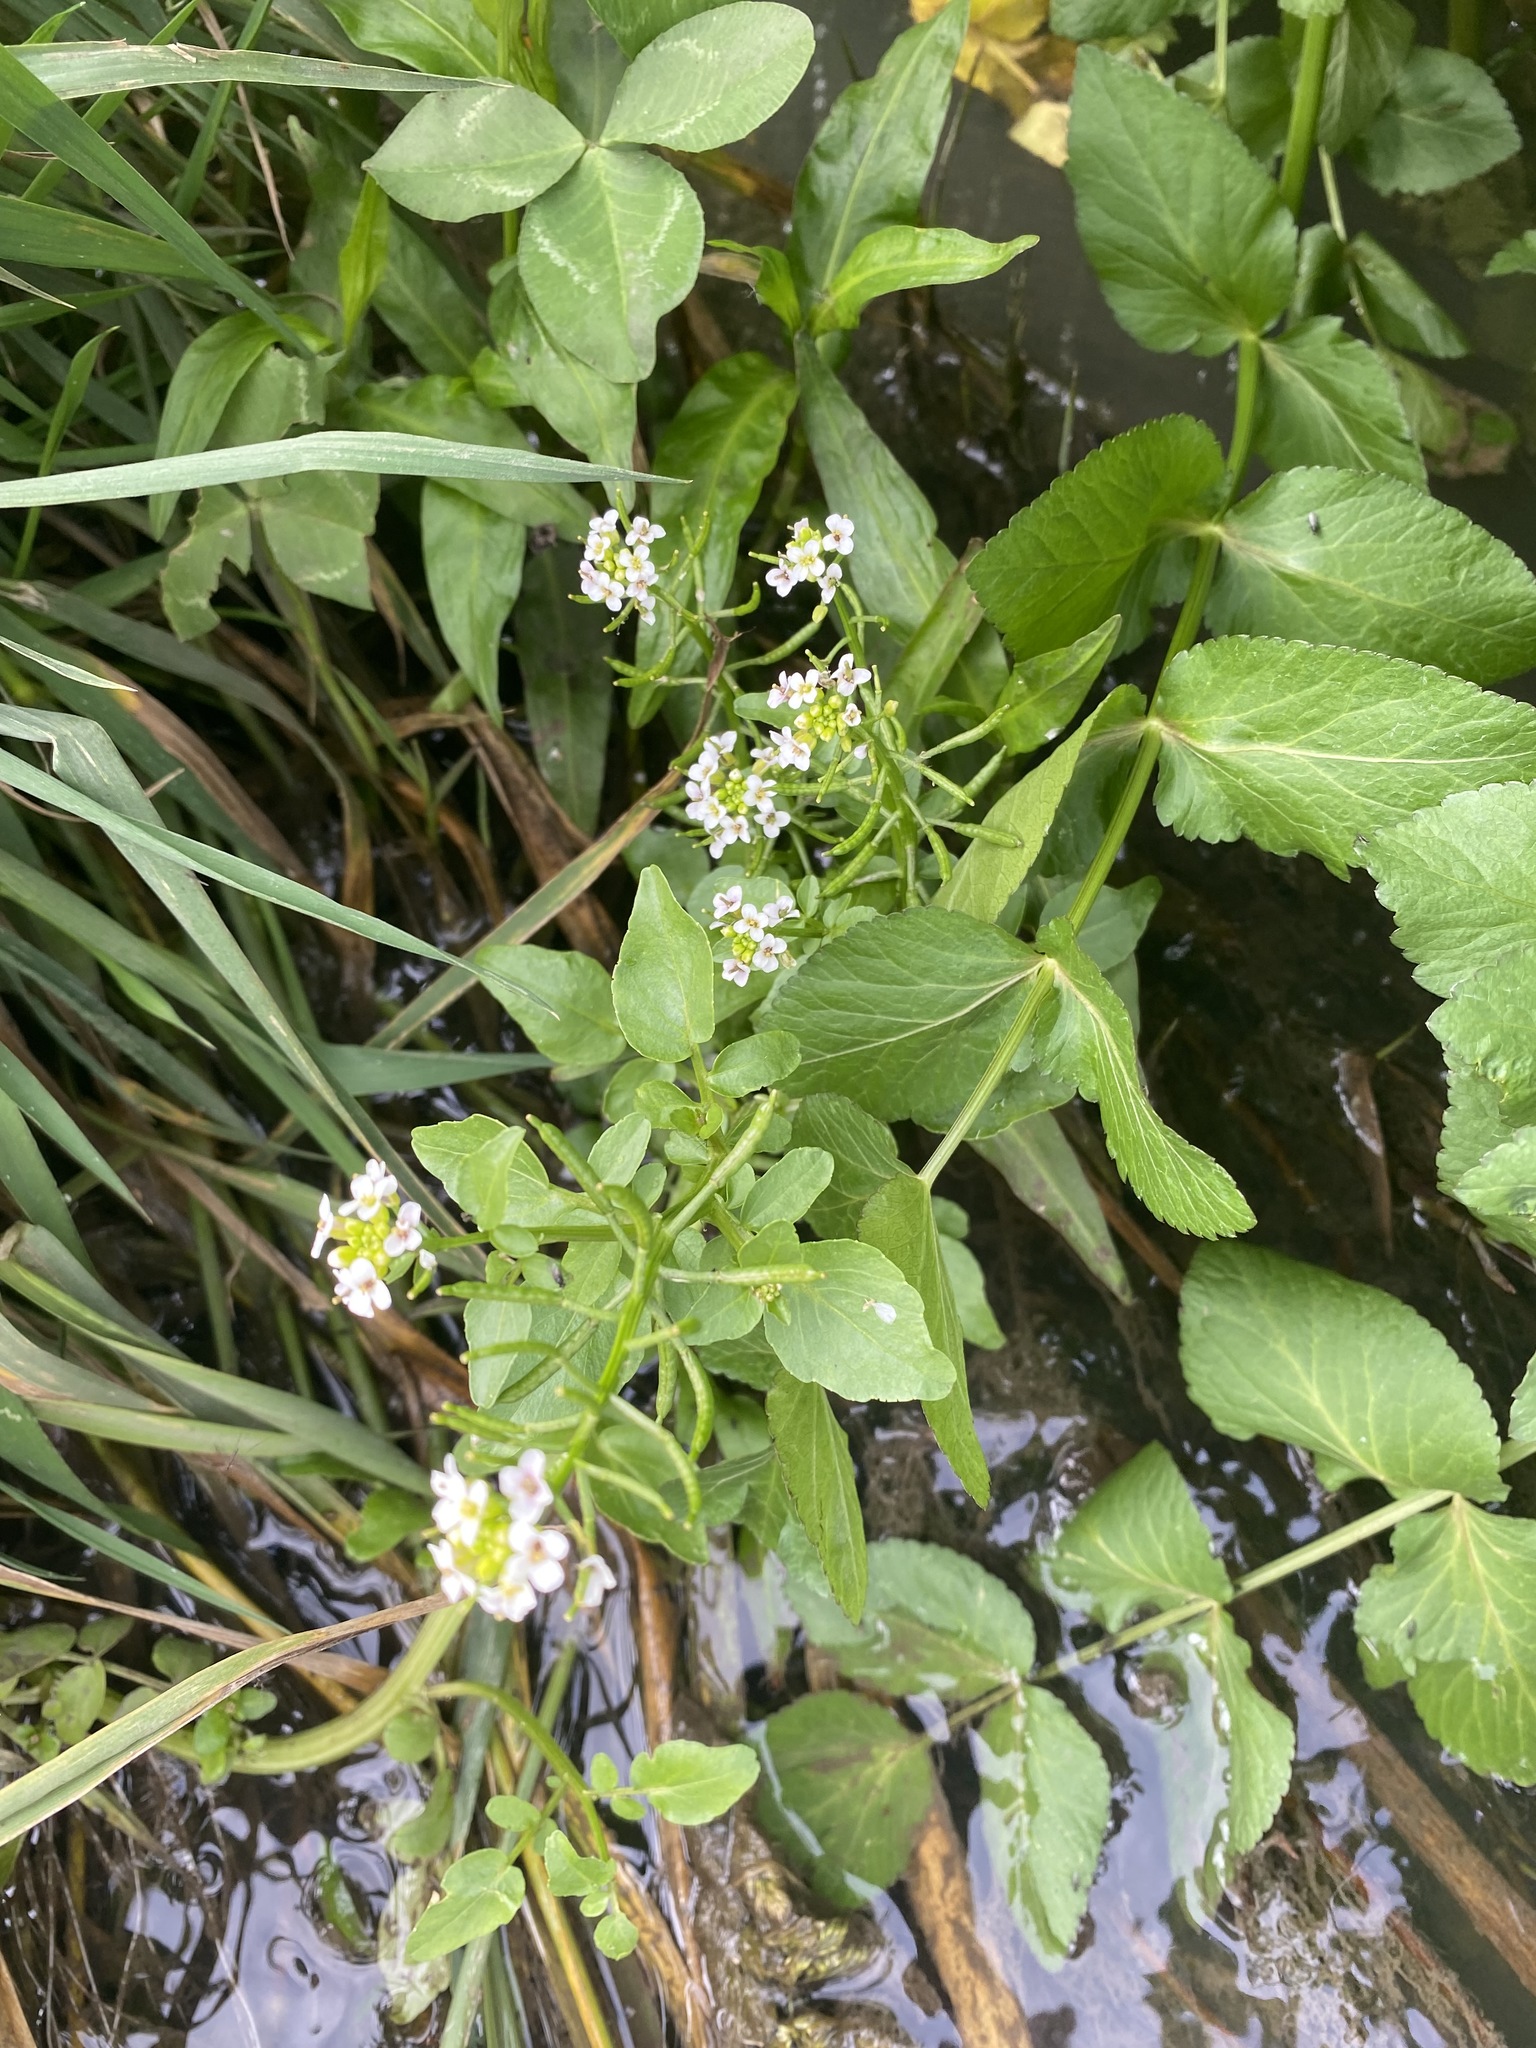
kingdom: Plantae
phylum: Tracheophyta
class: Magnoliopsida
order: Brassicales
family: Brassicaceae
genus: Nasturtium
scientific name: Nasturtium officinale
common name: Watercress
